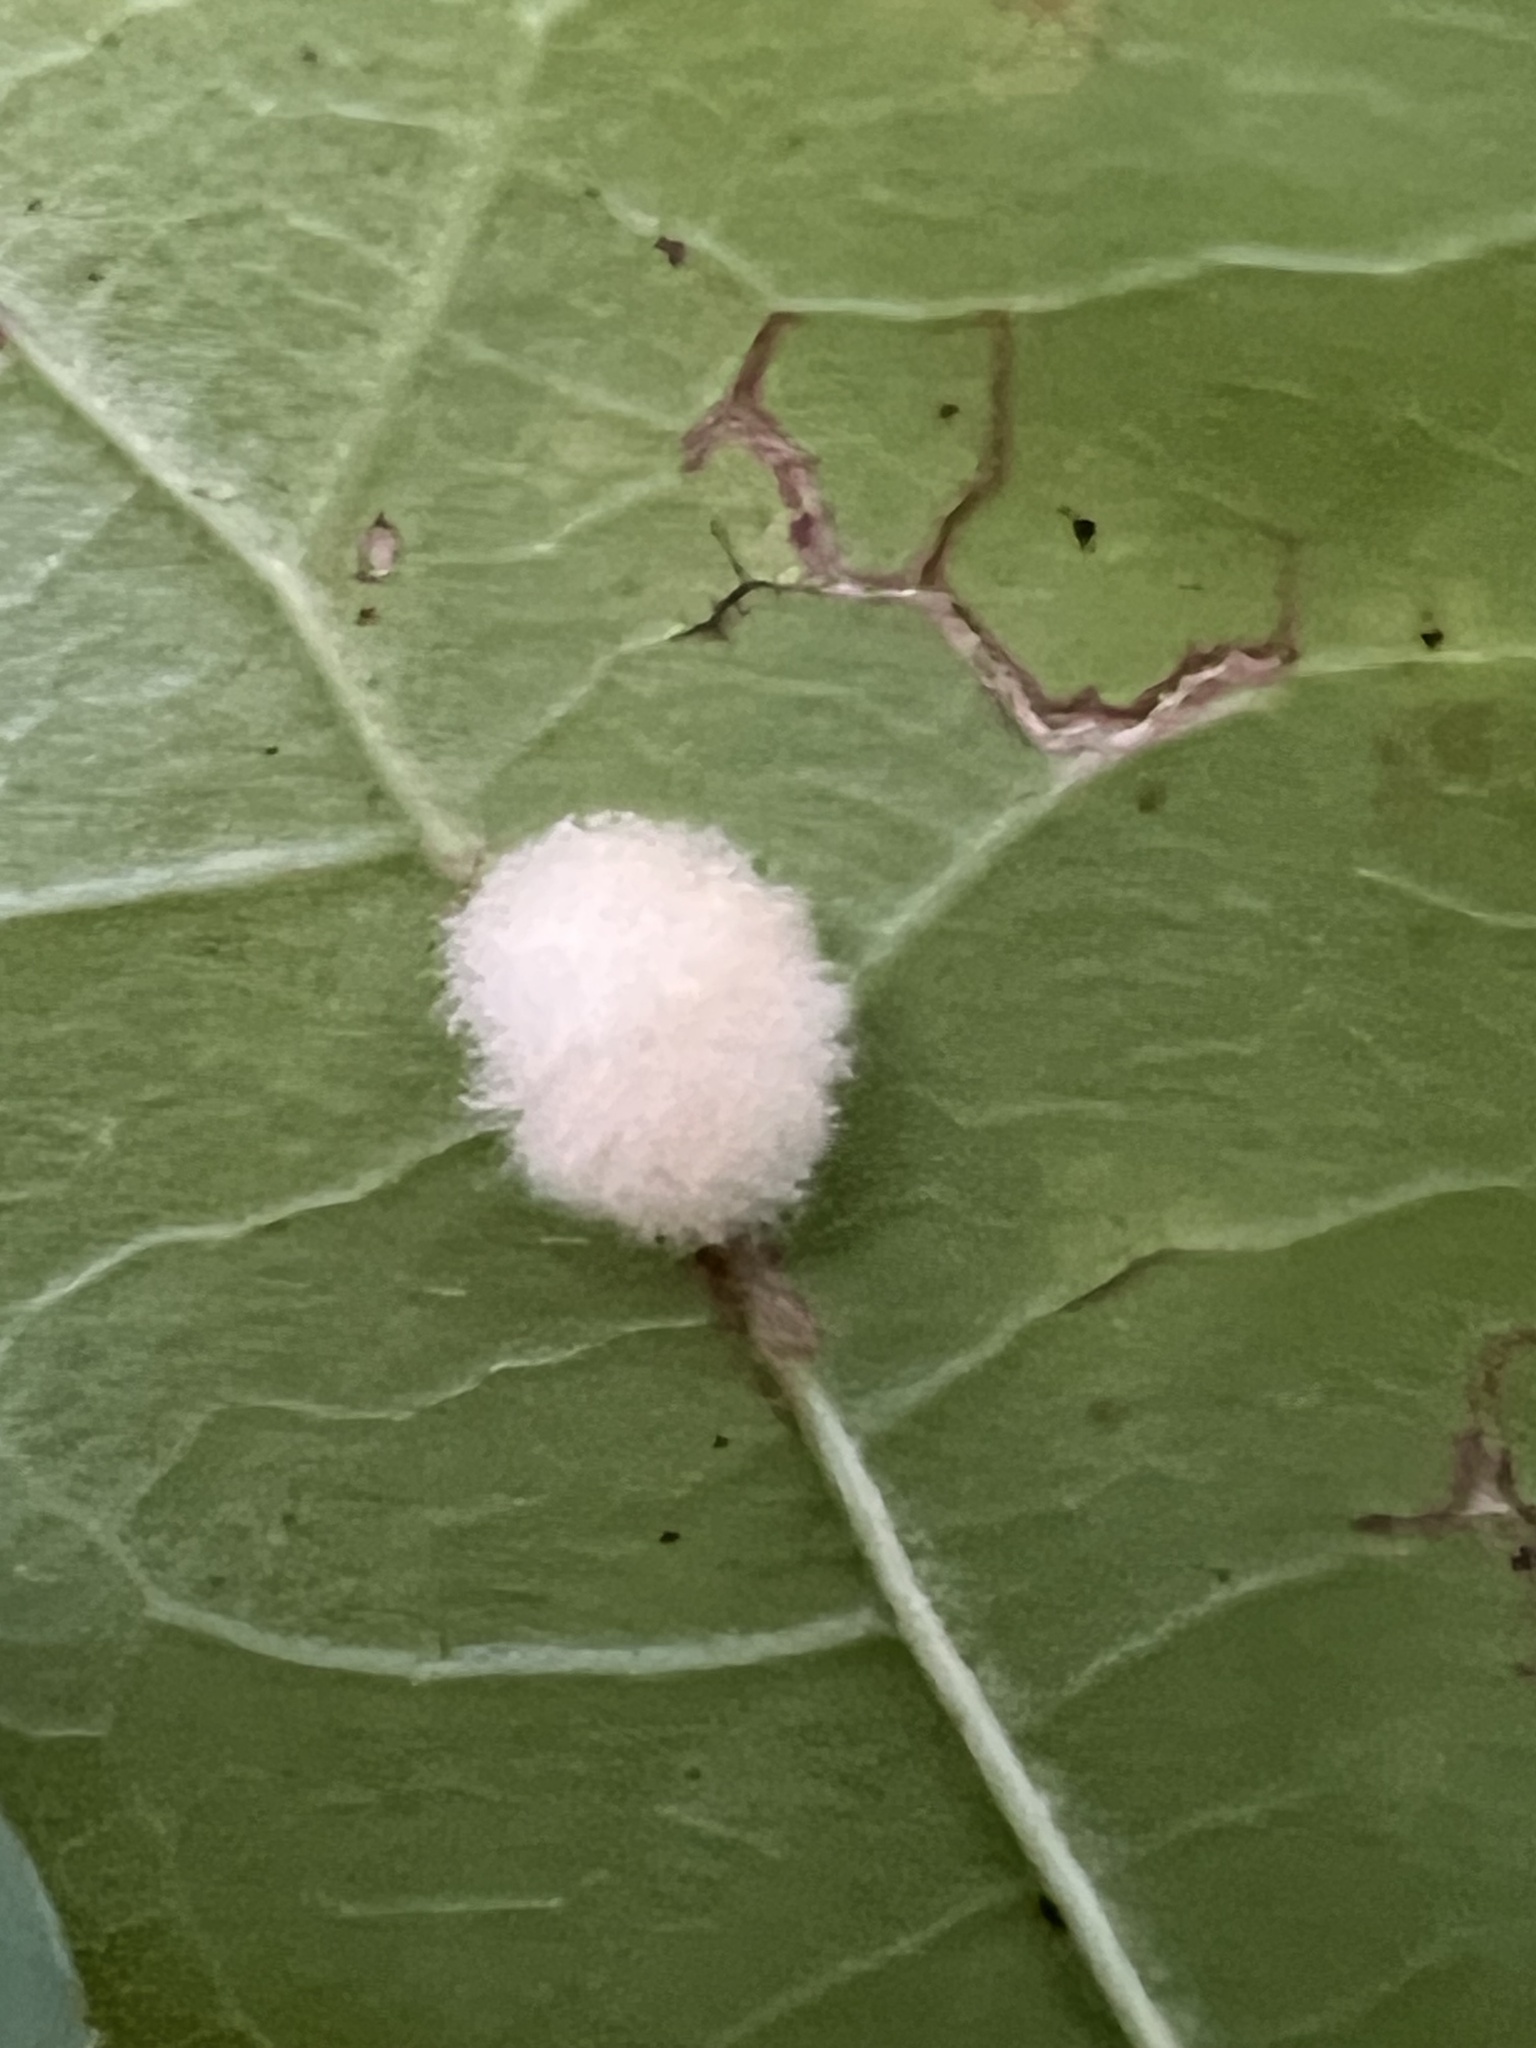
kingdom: Animalia
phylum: Arthropoda
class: Insecta
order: Hymenoptera
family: Cynipidae
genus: Callirhytis
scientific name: Callirhytis
